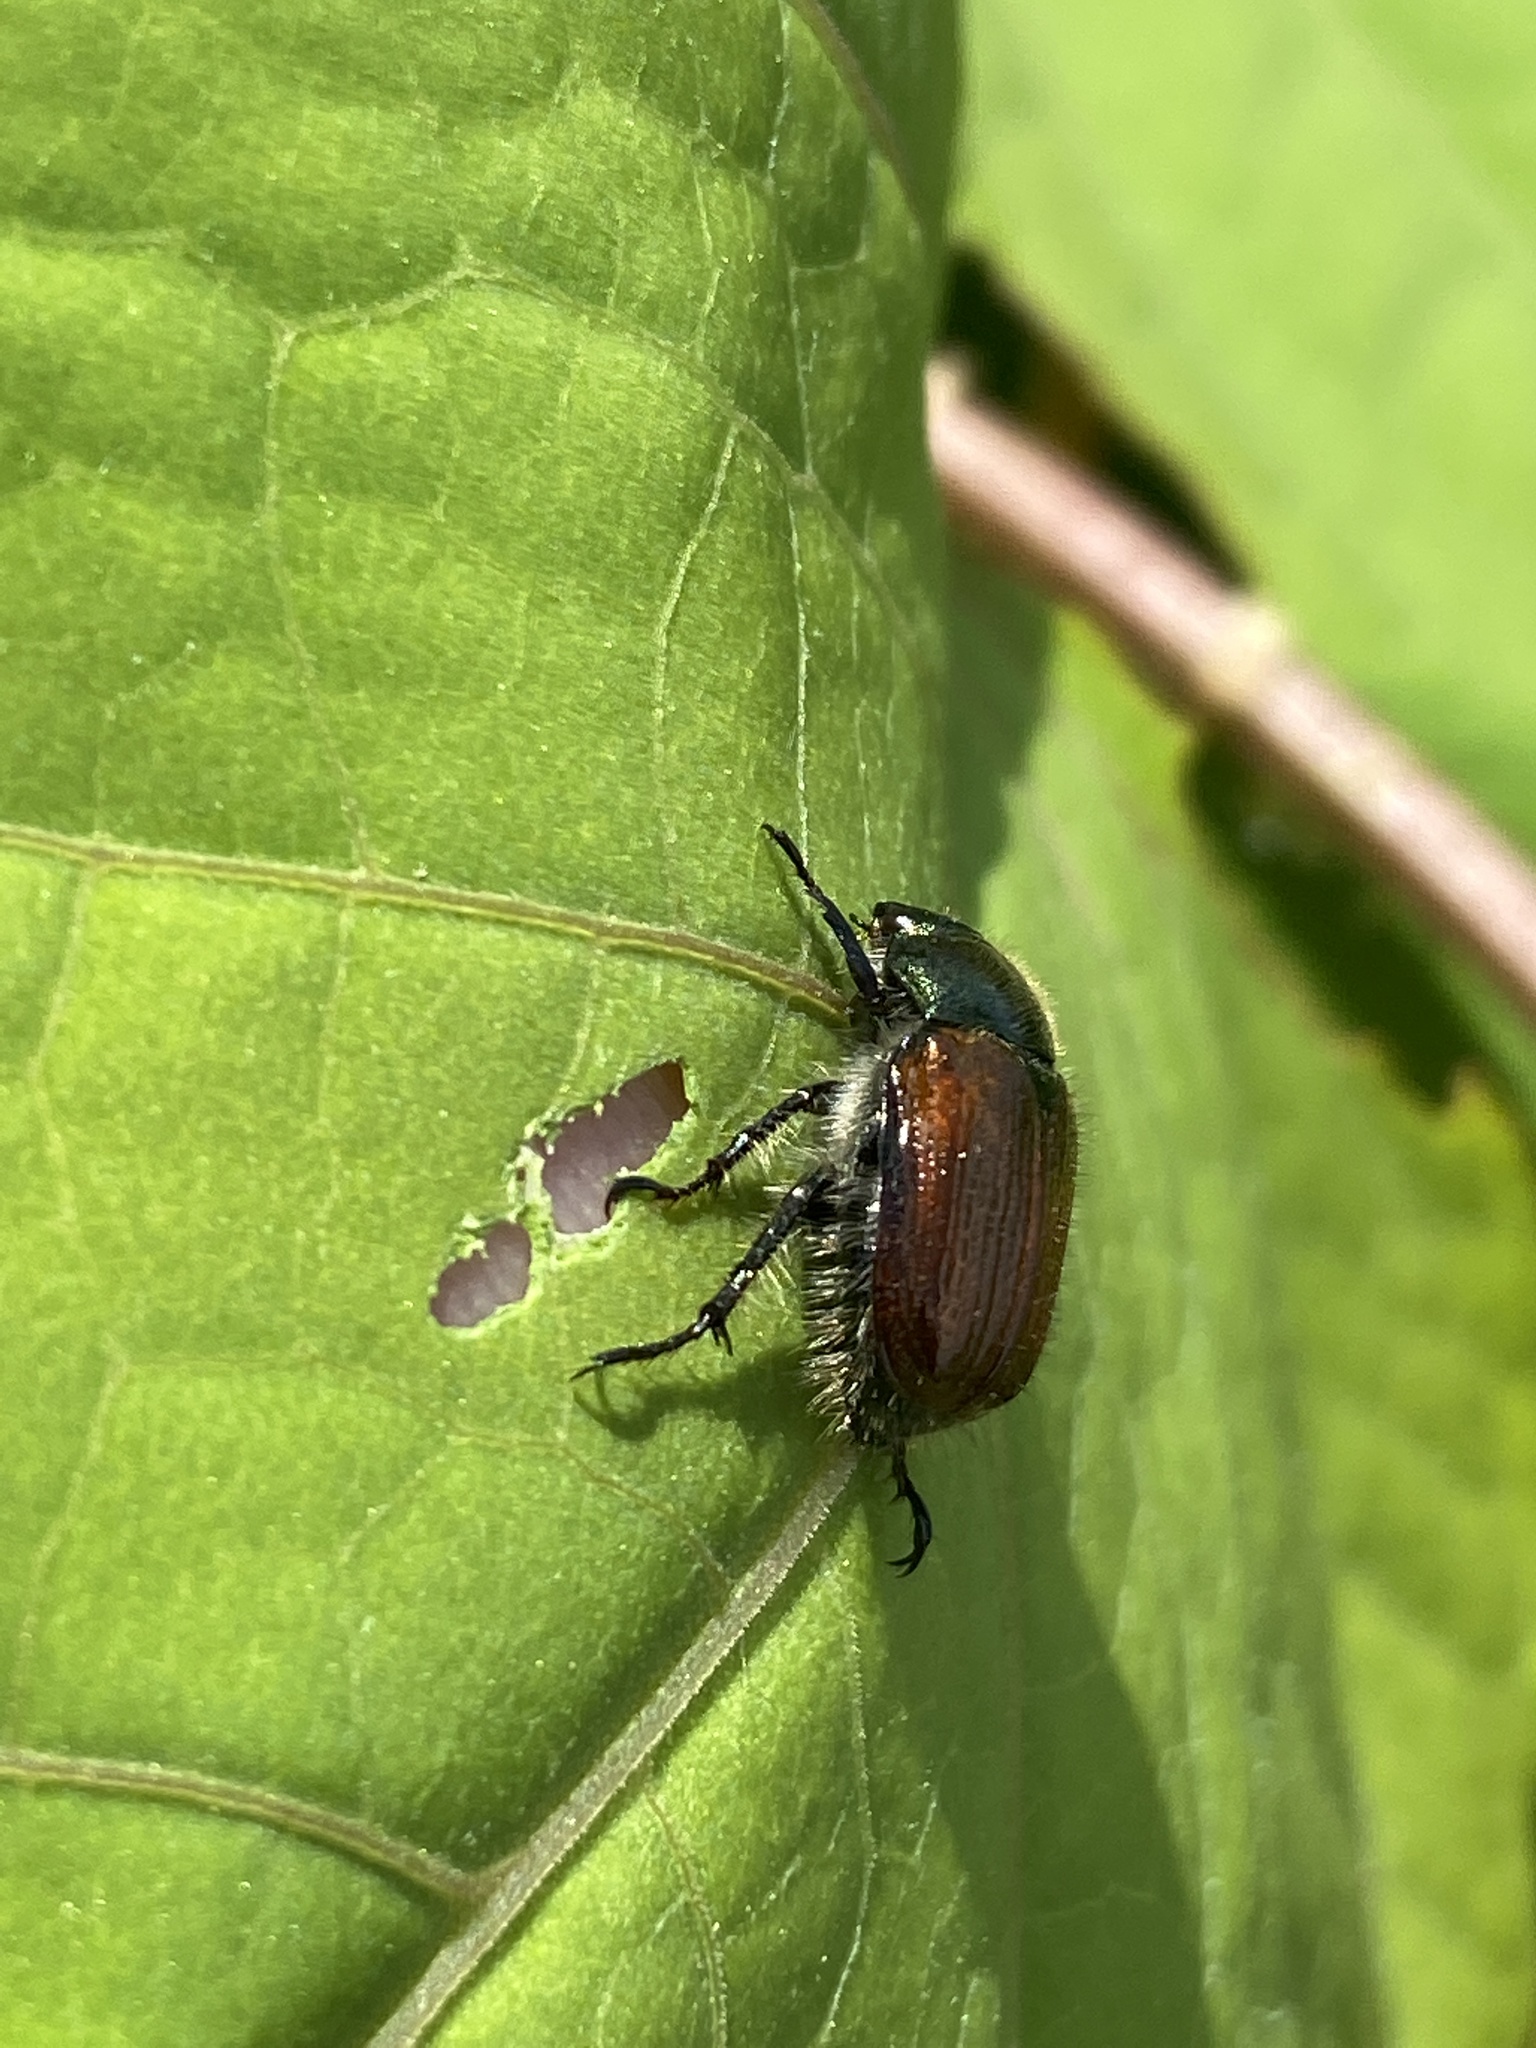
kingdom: Animalia
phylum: Arthropoda
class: Insecta
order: Coleoptera
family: Scarabaeidae
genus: Phyllopertha
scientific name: Phyllopertha horticola
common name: Garden chafer
